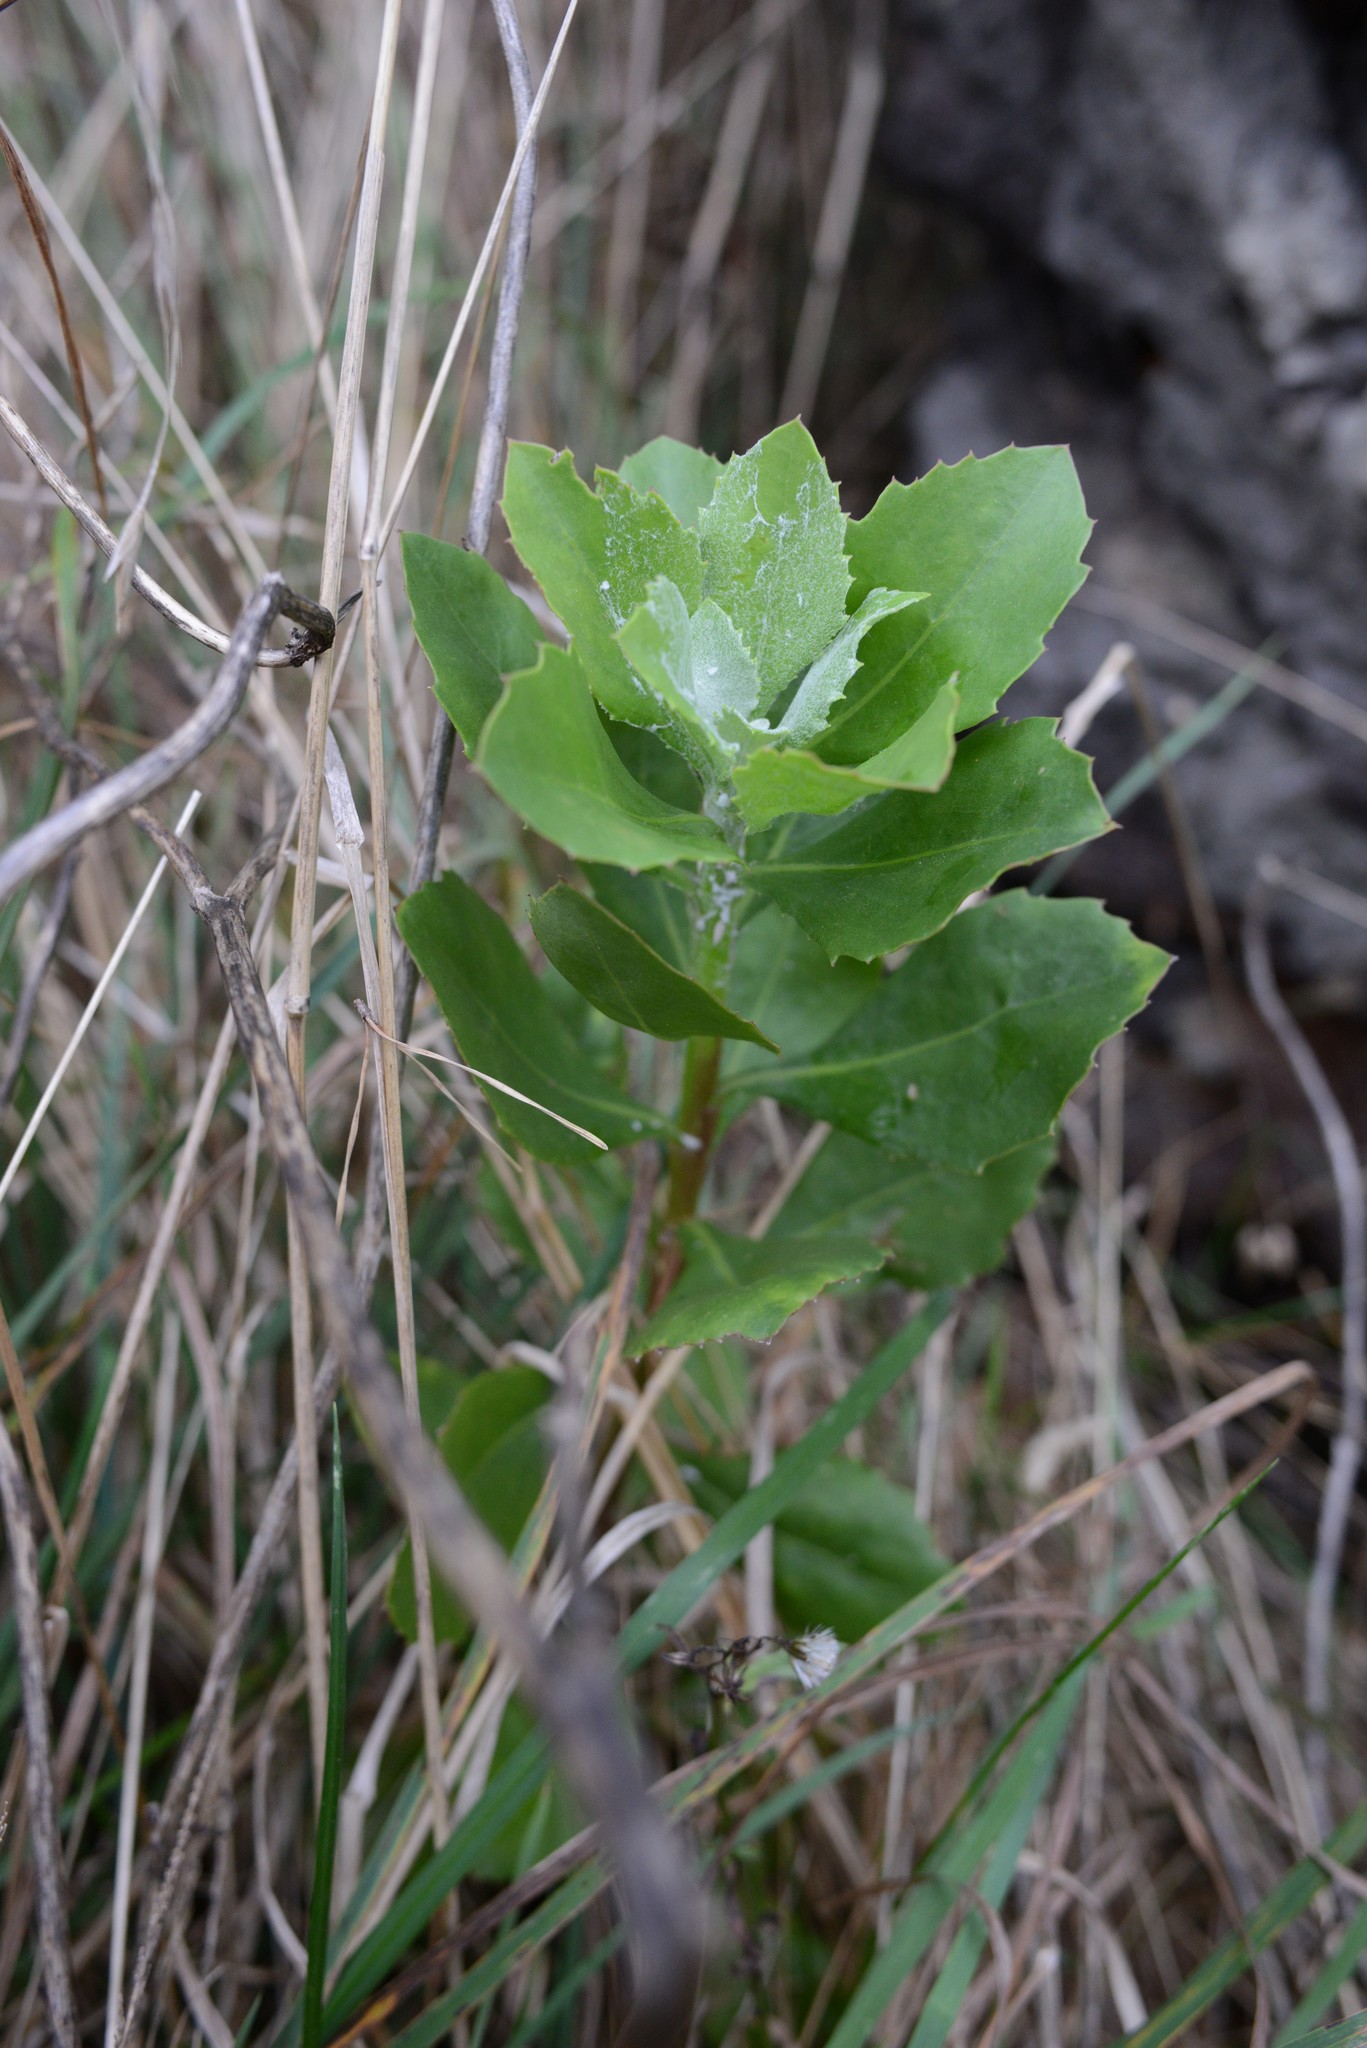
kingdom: Plantae
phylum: Tracheophyta
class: Magnoliopsida
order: Asterales
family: Asteraceae
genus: Osteospermum
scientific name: Osteospermum moniliferum
